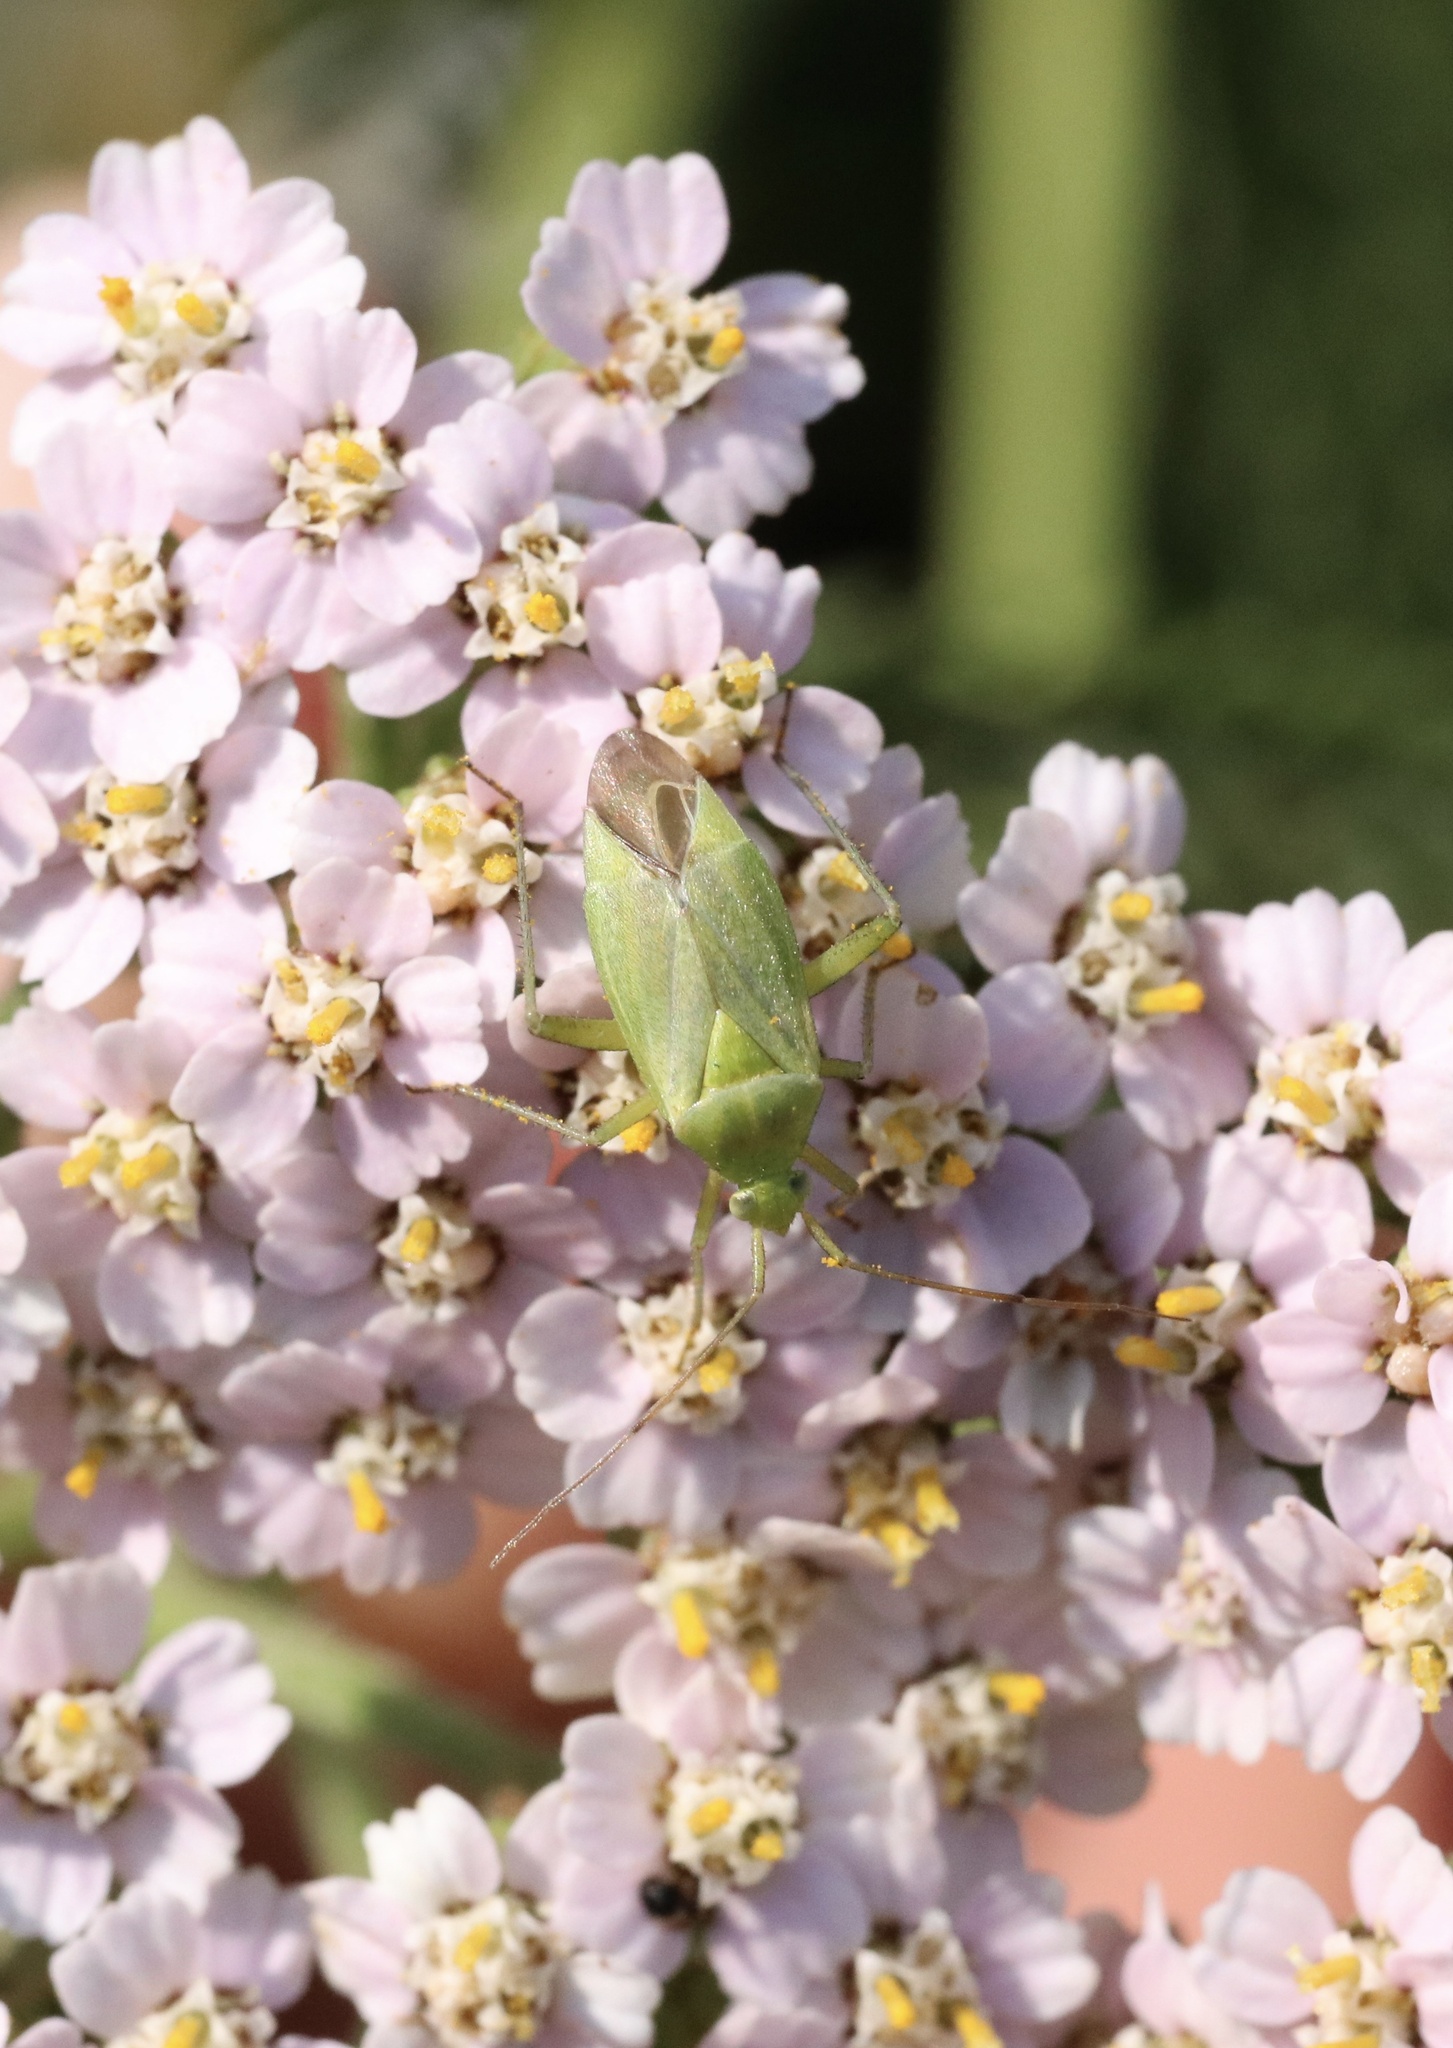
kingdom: Animalia
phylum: Arthropoda
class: Insecta
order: Hemiptera
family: Miridae
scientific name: Miridae
